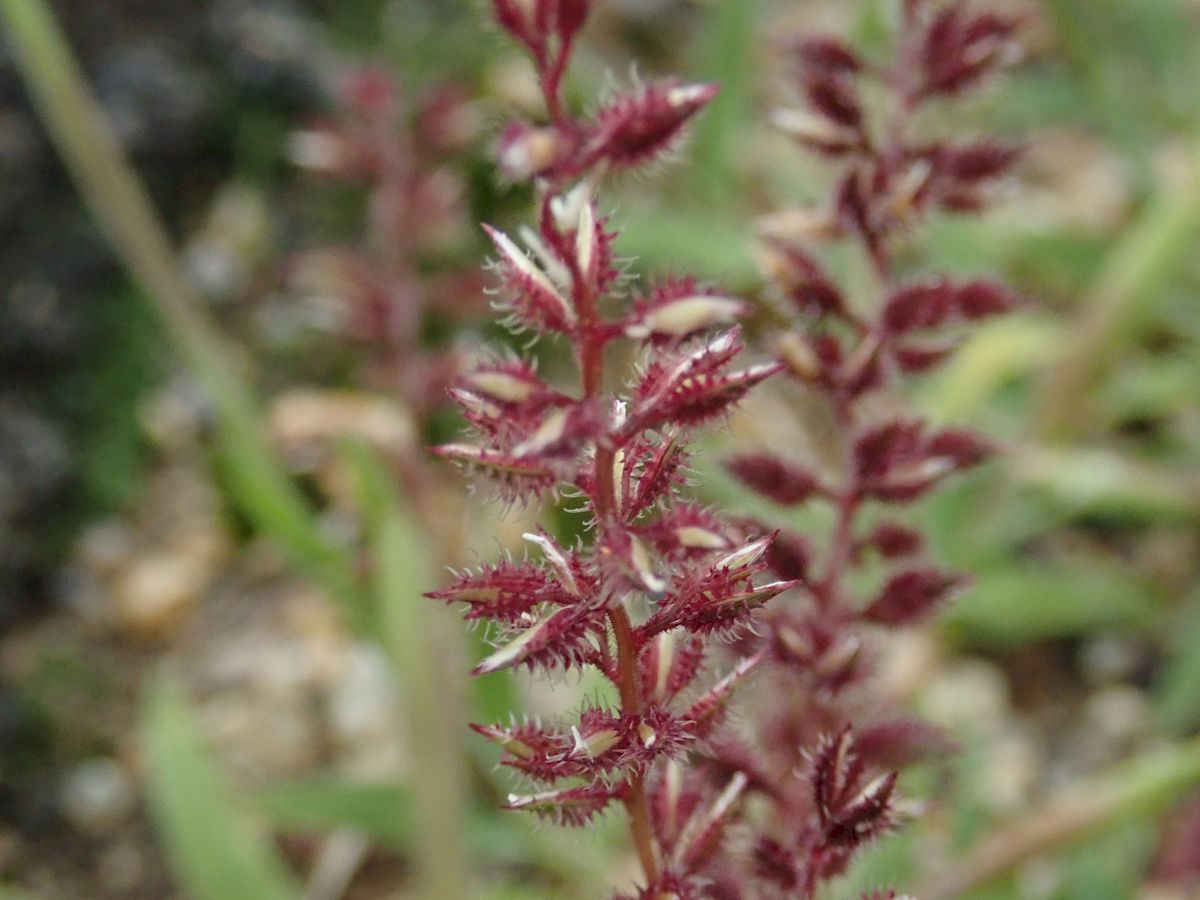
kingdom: Plantae
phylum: Tracheophyta
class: Liliopsida
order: Poales
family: Poaceae
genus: Tragus
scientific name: Tragus australianus
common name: Australian bur-grass
